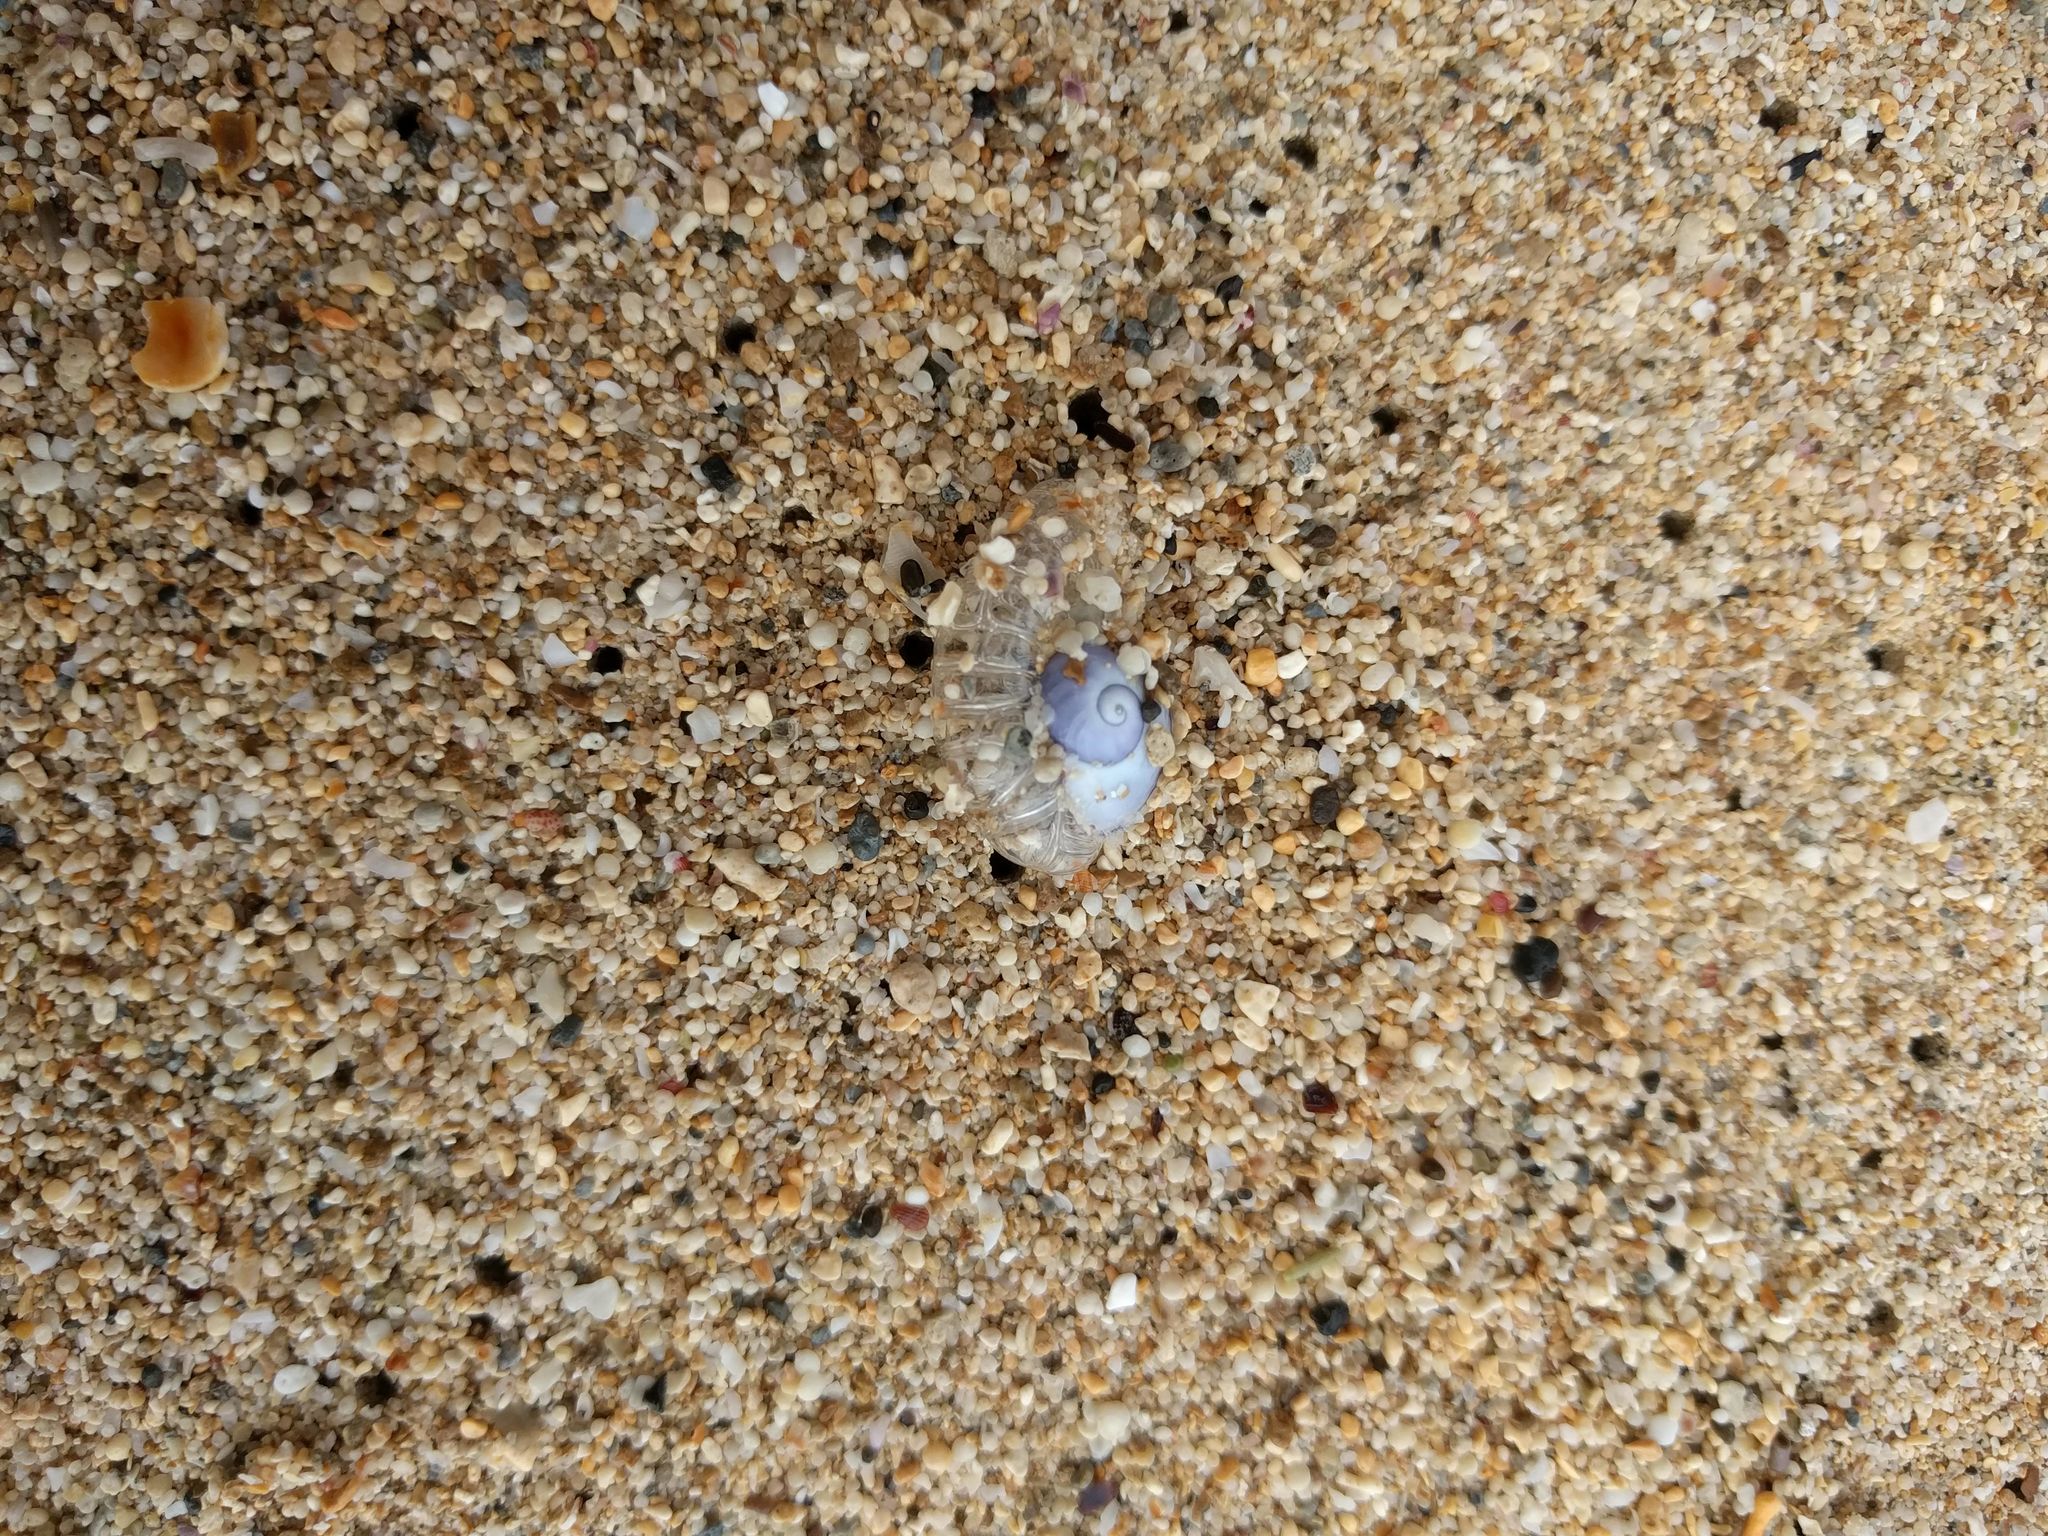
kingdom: Animalia
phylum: Mollusca
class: Gastropoda
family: Epitoniidae
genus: Janthina
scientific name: Janthina janthina
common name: Common janthina
